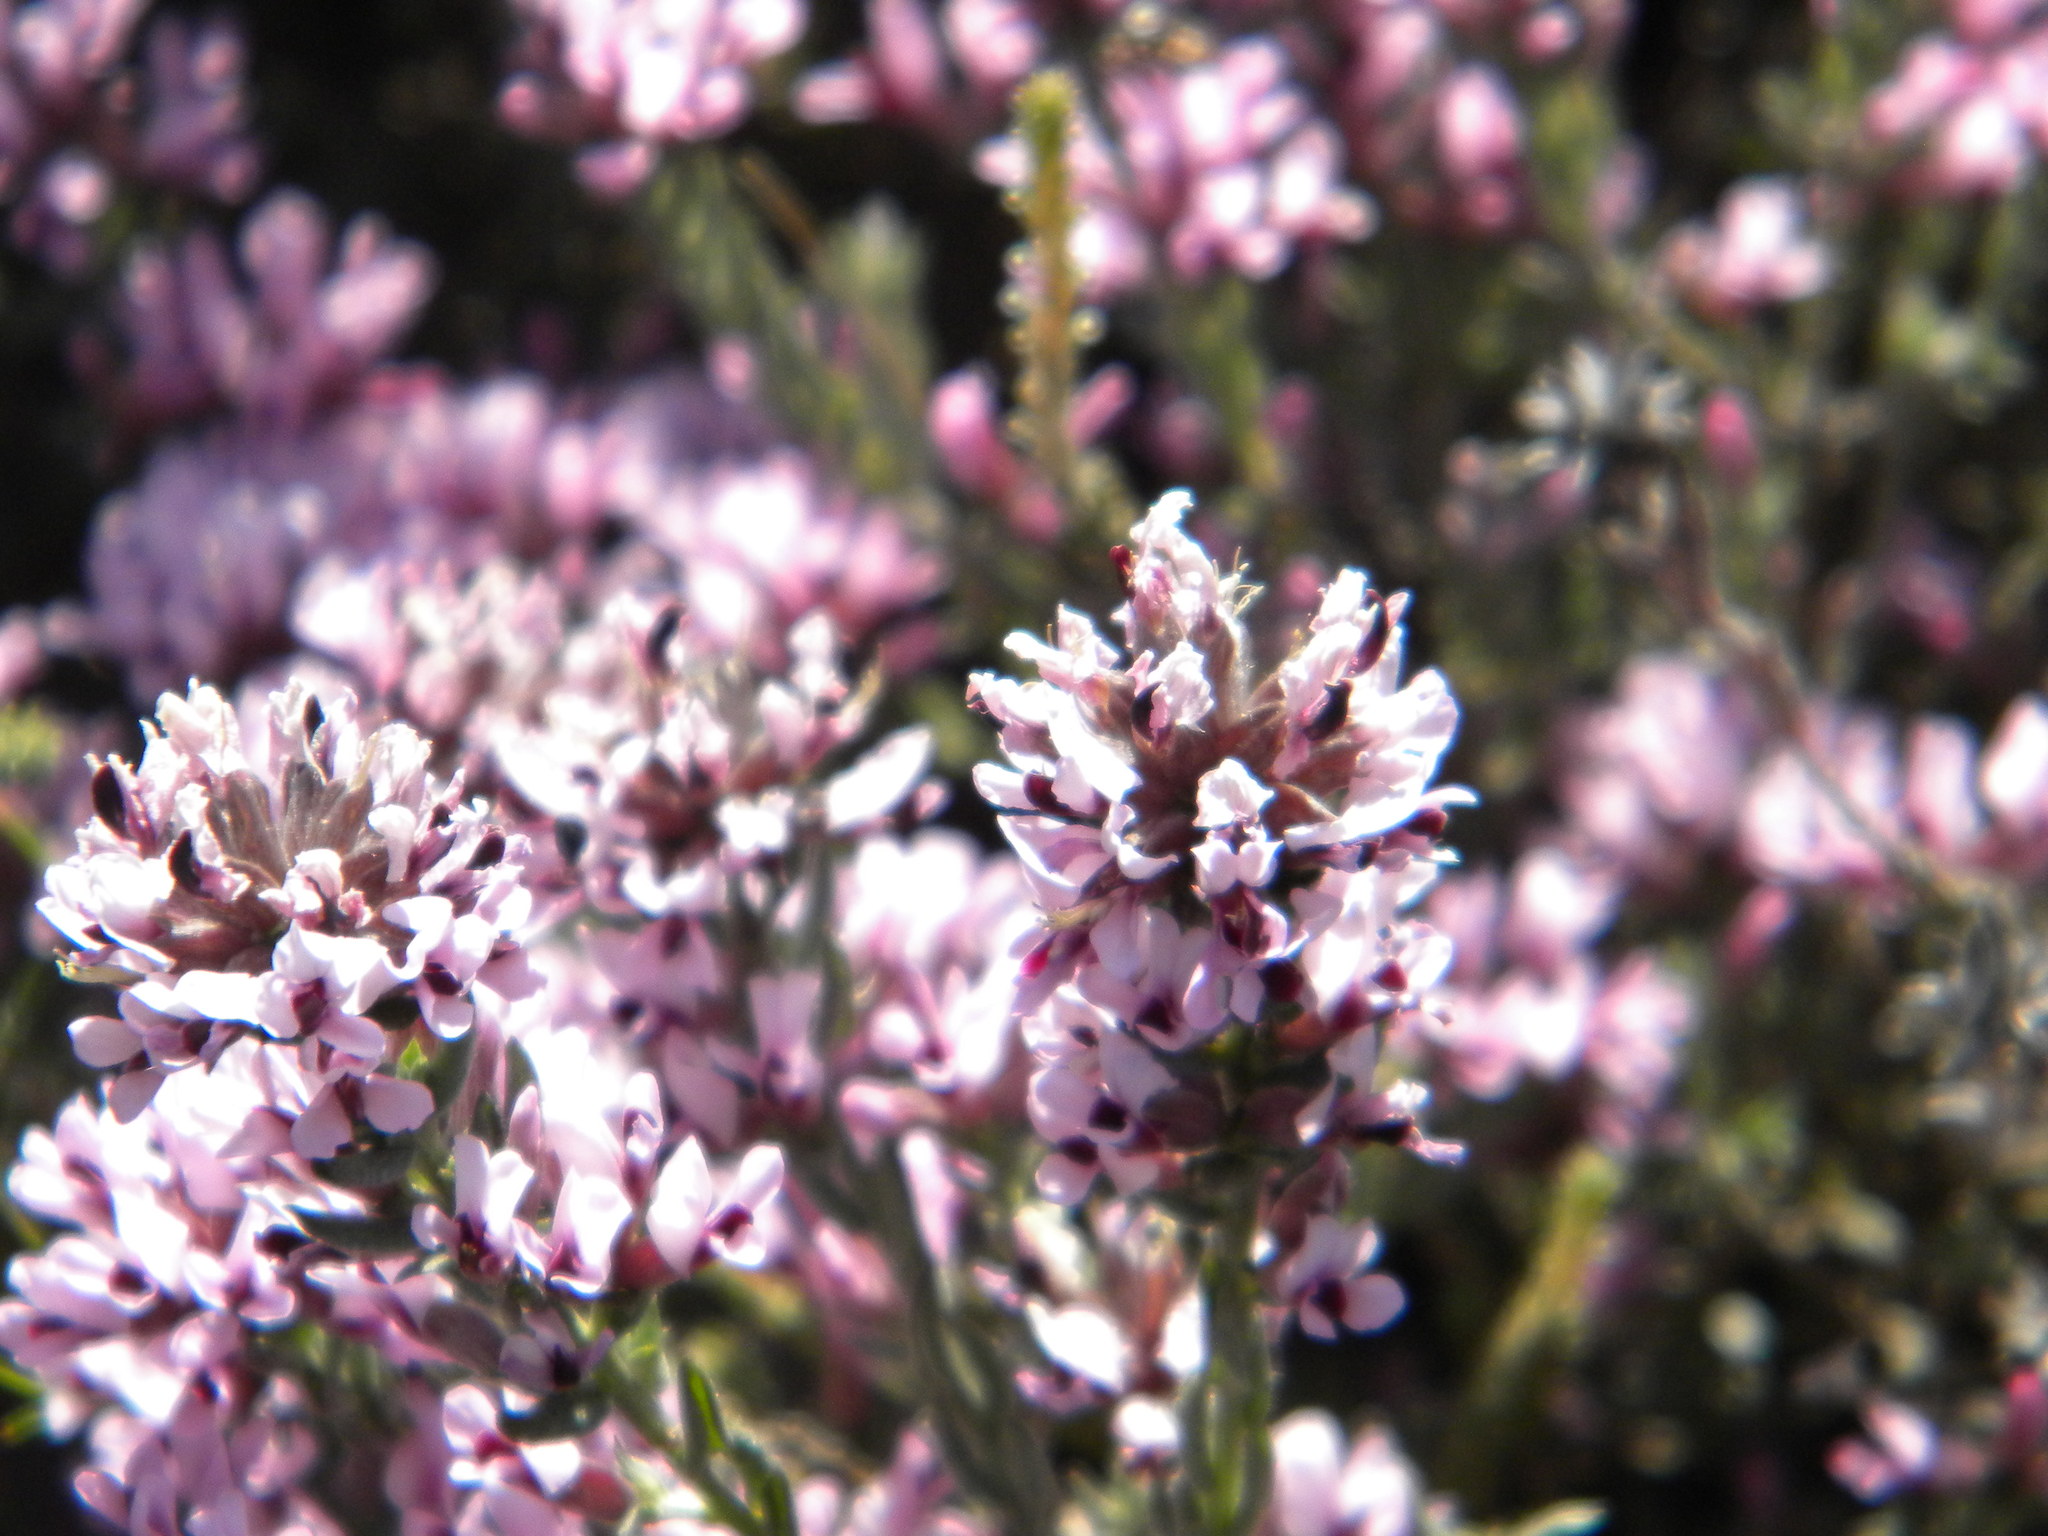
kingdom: Plantae
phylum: Tracheophyta
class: Magnoliopsida
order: Fabales
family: Fabaceae
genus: Amphithalea
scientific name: Amphithalea ericifolia
